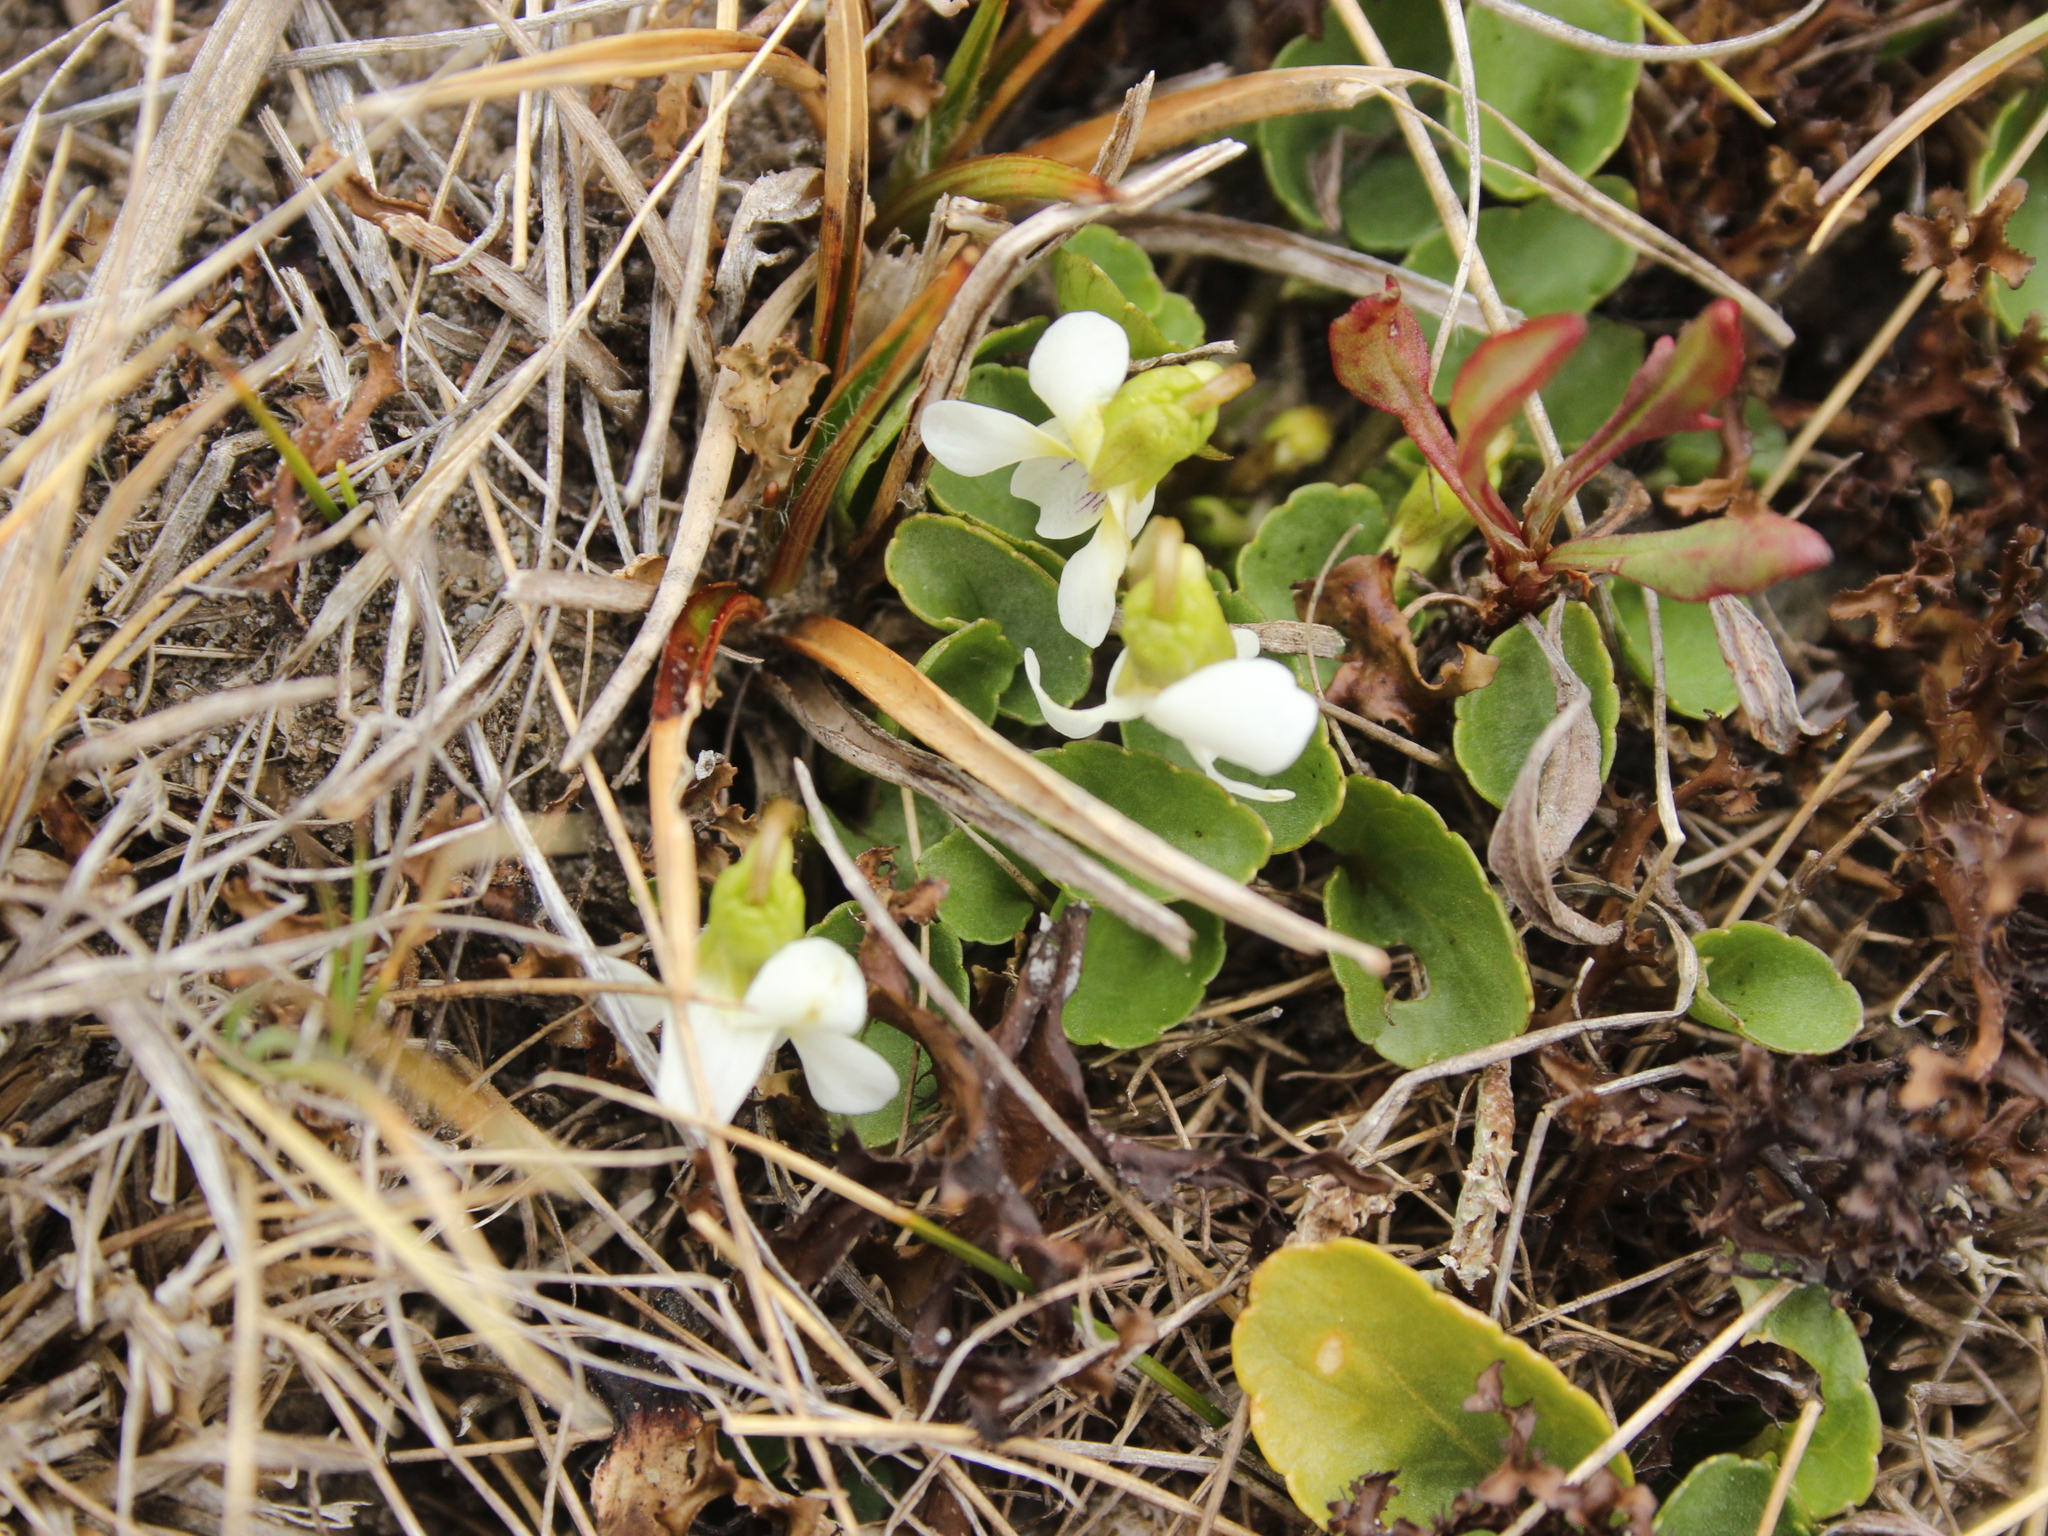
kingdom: Plantae
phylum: Tracheophyta
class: Magnoliopsida
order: Malpighiales
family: Violaceae
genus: Viola
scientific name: Viola cunninghamii
